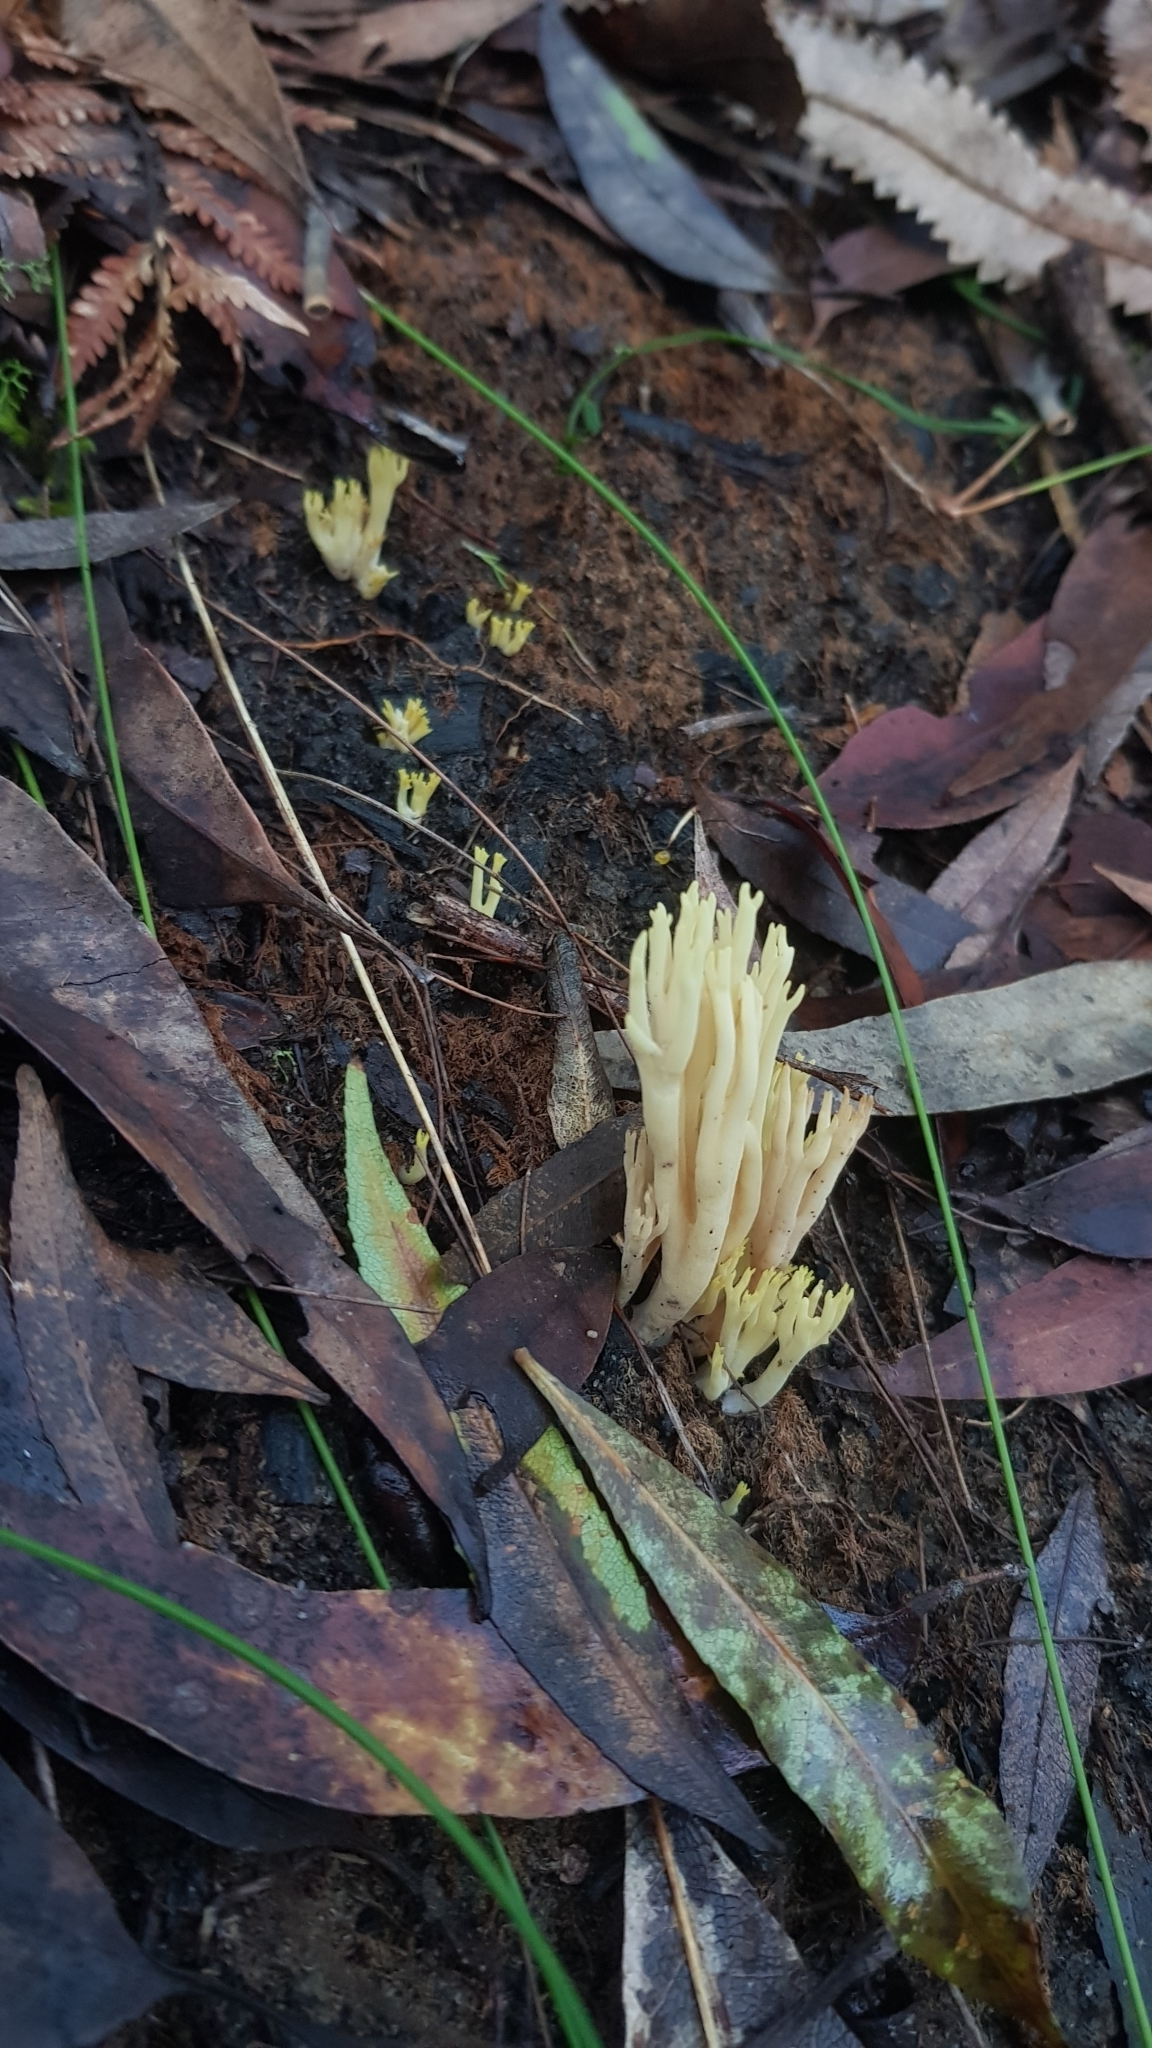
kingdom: Fungi
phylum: Basidiomycota
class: Agaricomycetes
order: Gomphales
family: Gomphaceae
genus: Ramaria
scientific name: Ramaria lorithamnus
